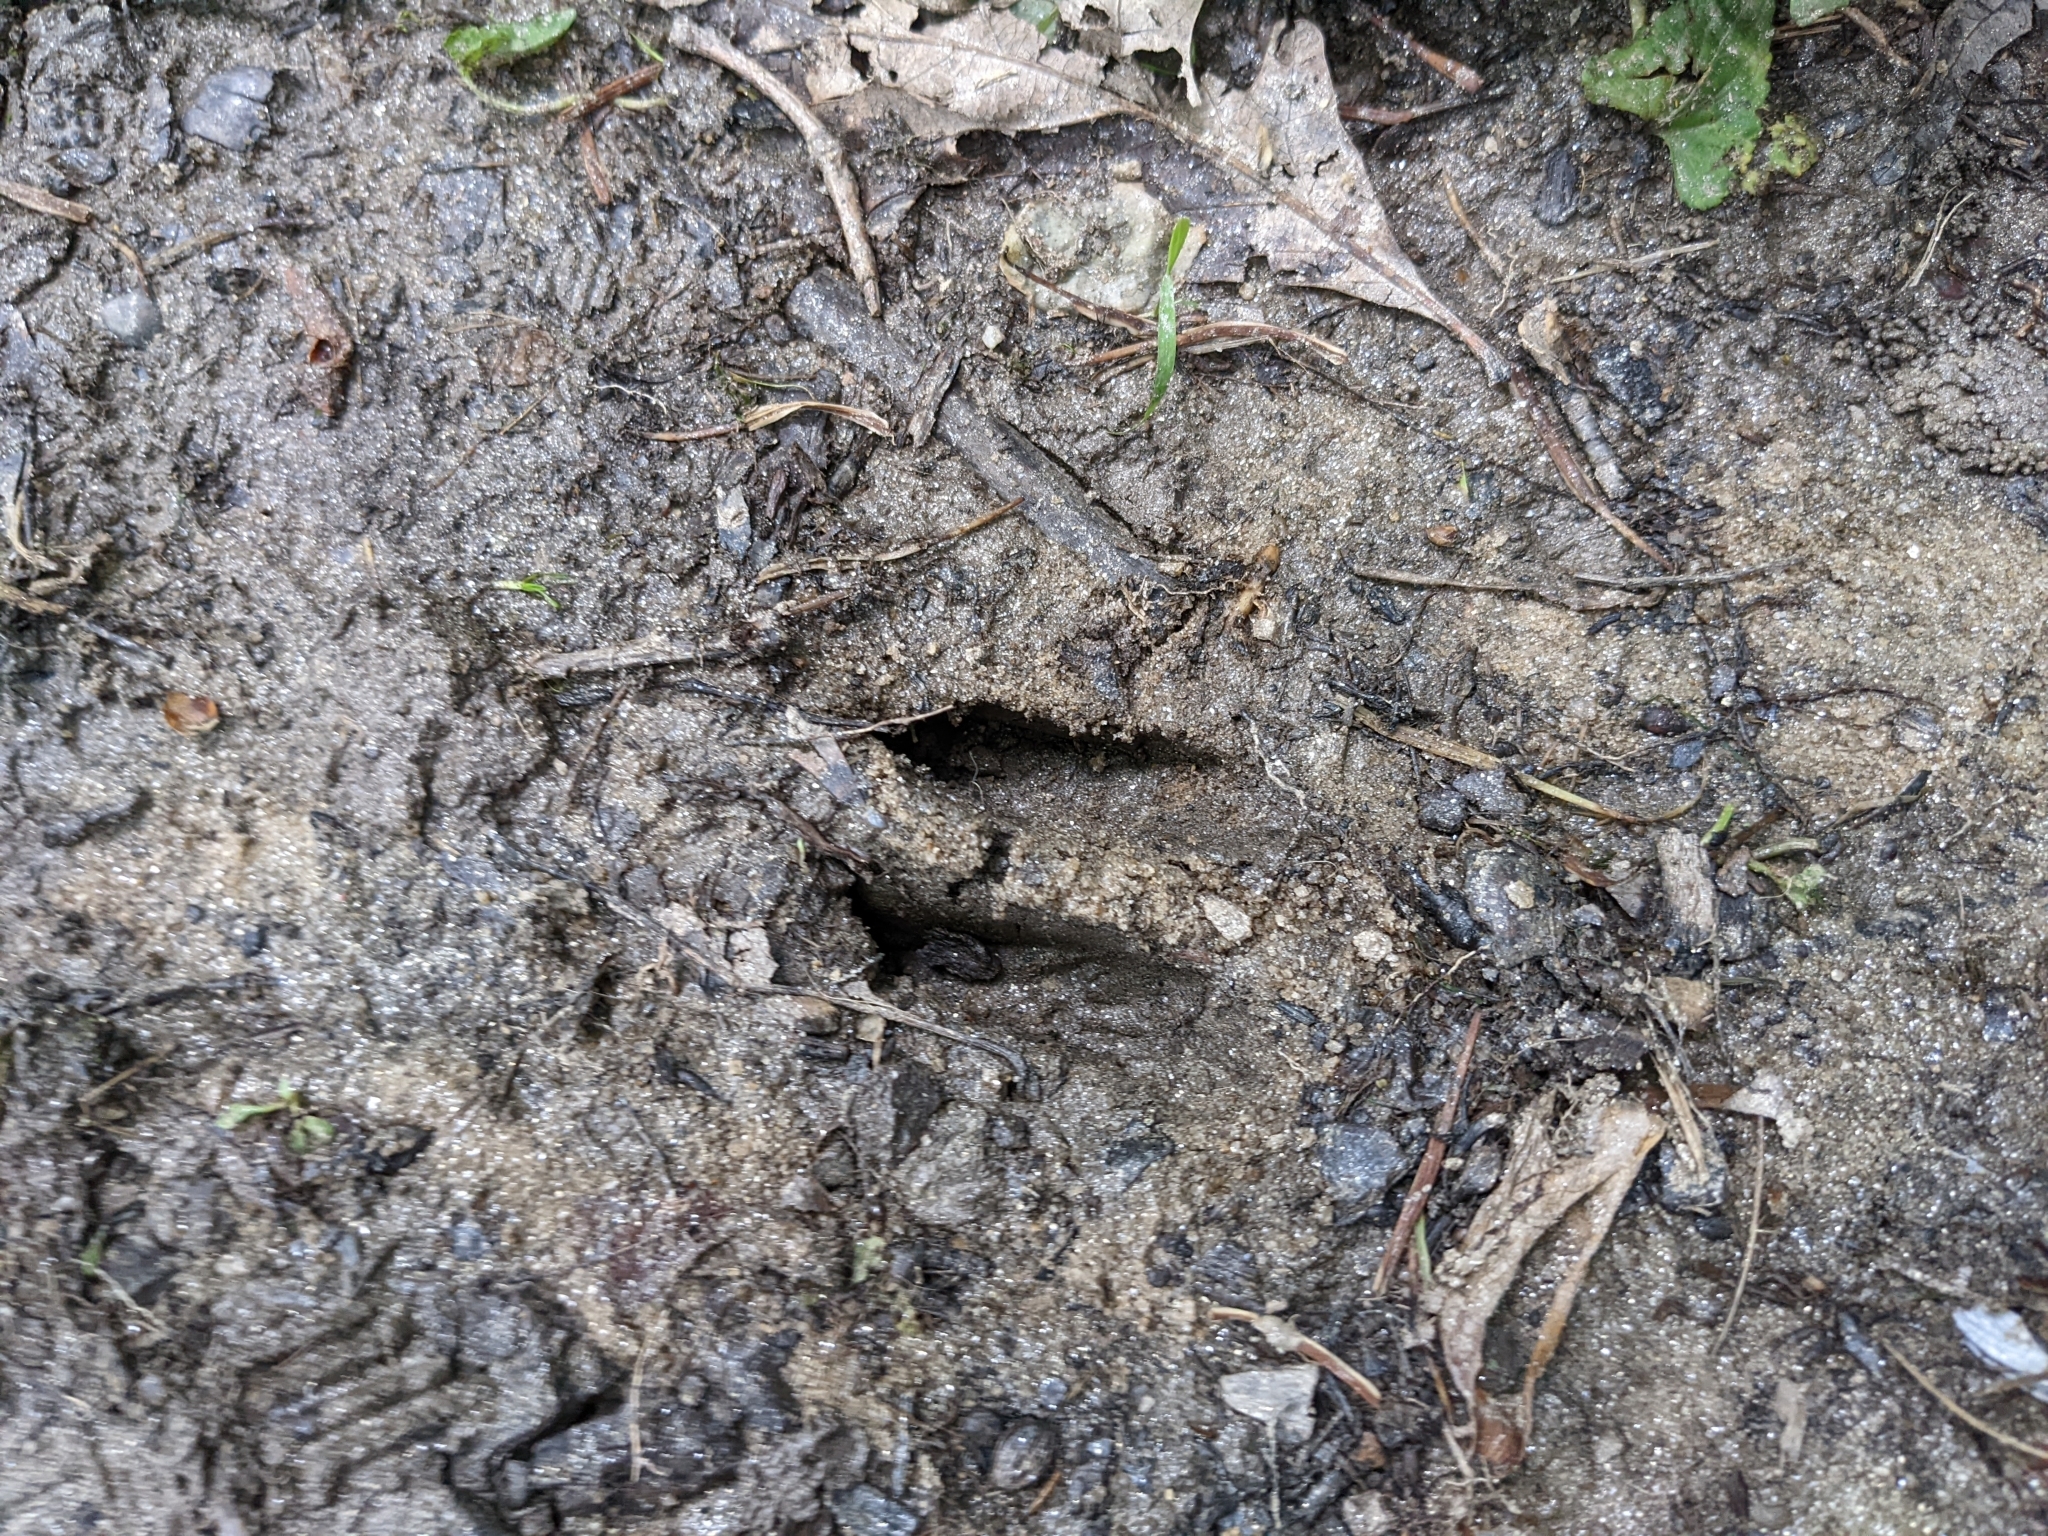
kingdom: Animalia
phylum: Chordata
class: Mammalia
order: Artiodactyla
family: Cervidae
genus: Odocoileus
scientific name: Odocoileus virginianus
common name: White-tailed deer
